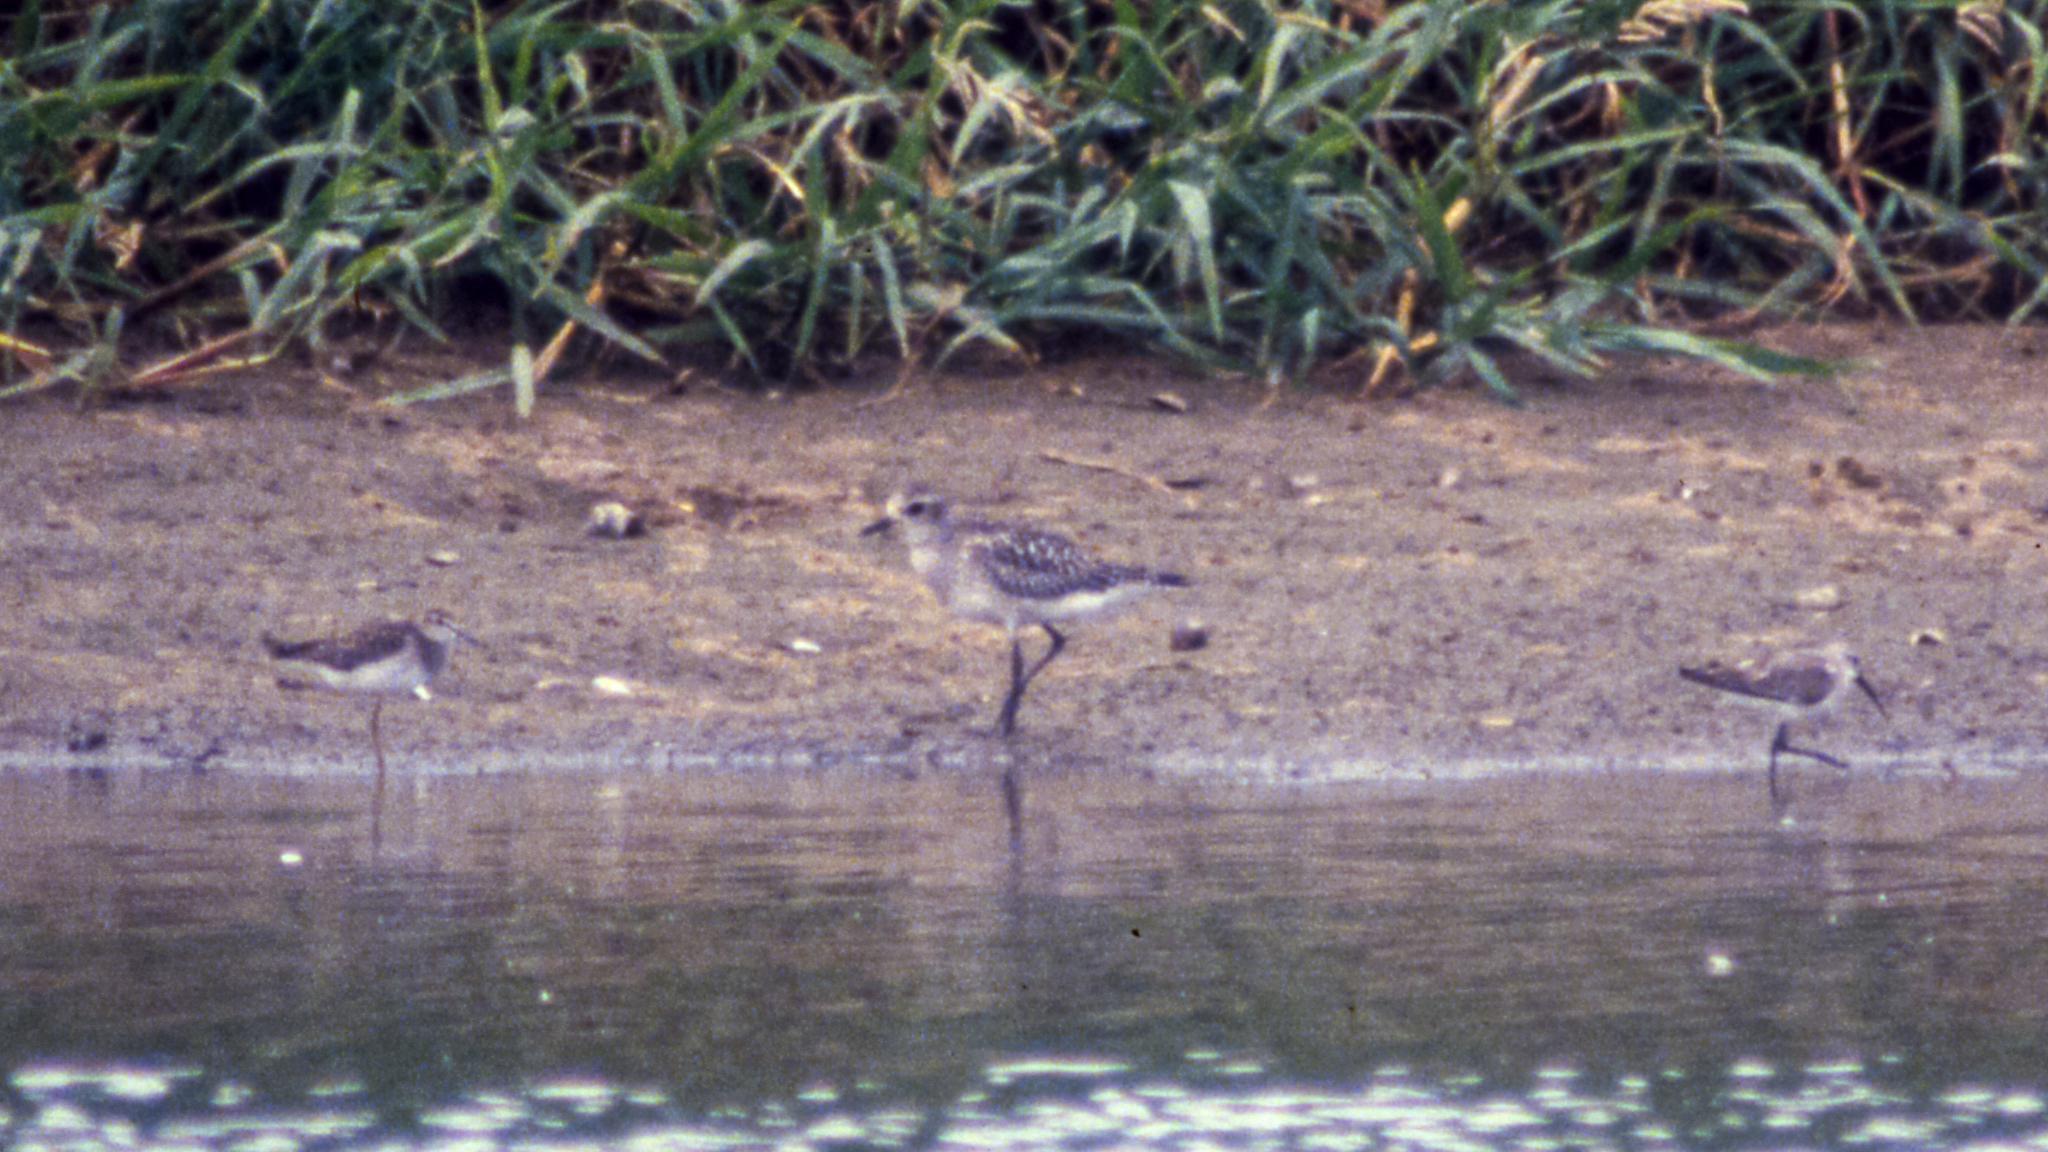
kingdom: Animalia
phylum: Chordata
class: Aves
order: Charadriiformes
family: Scolopacidae
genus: Calidris
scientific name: Calidris ferruginea
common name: Curlew sandpiper
